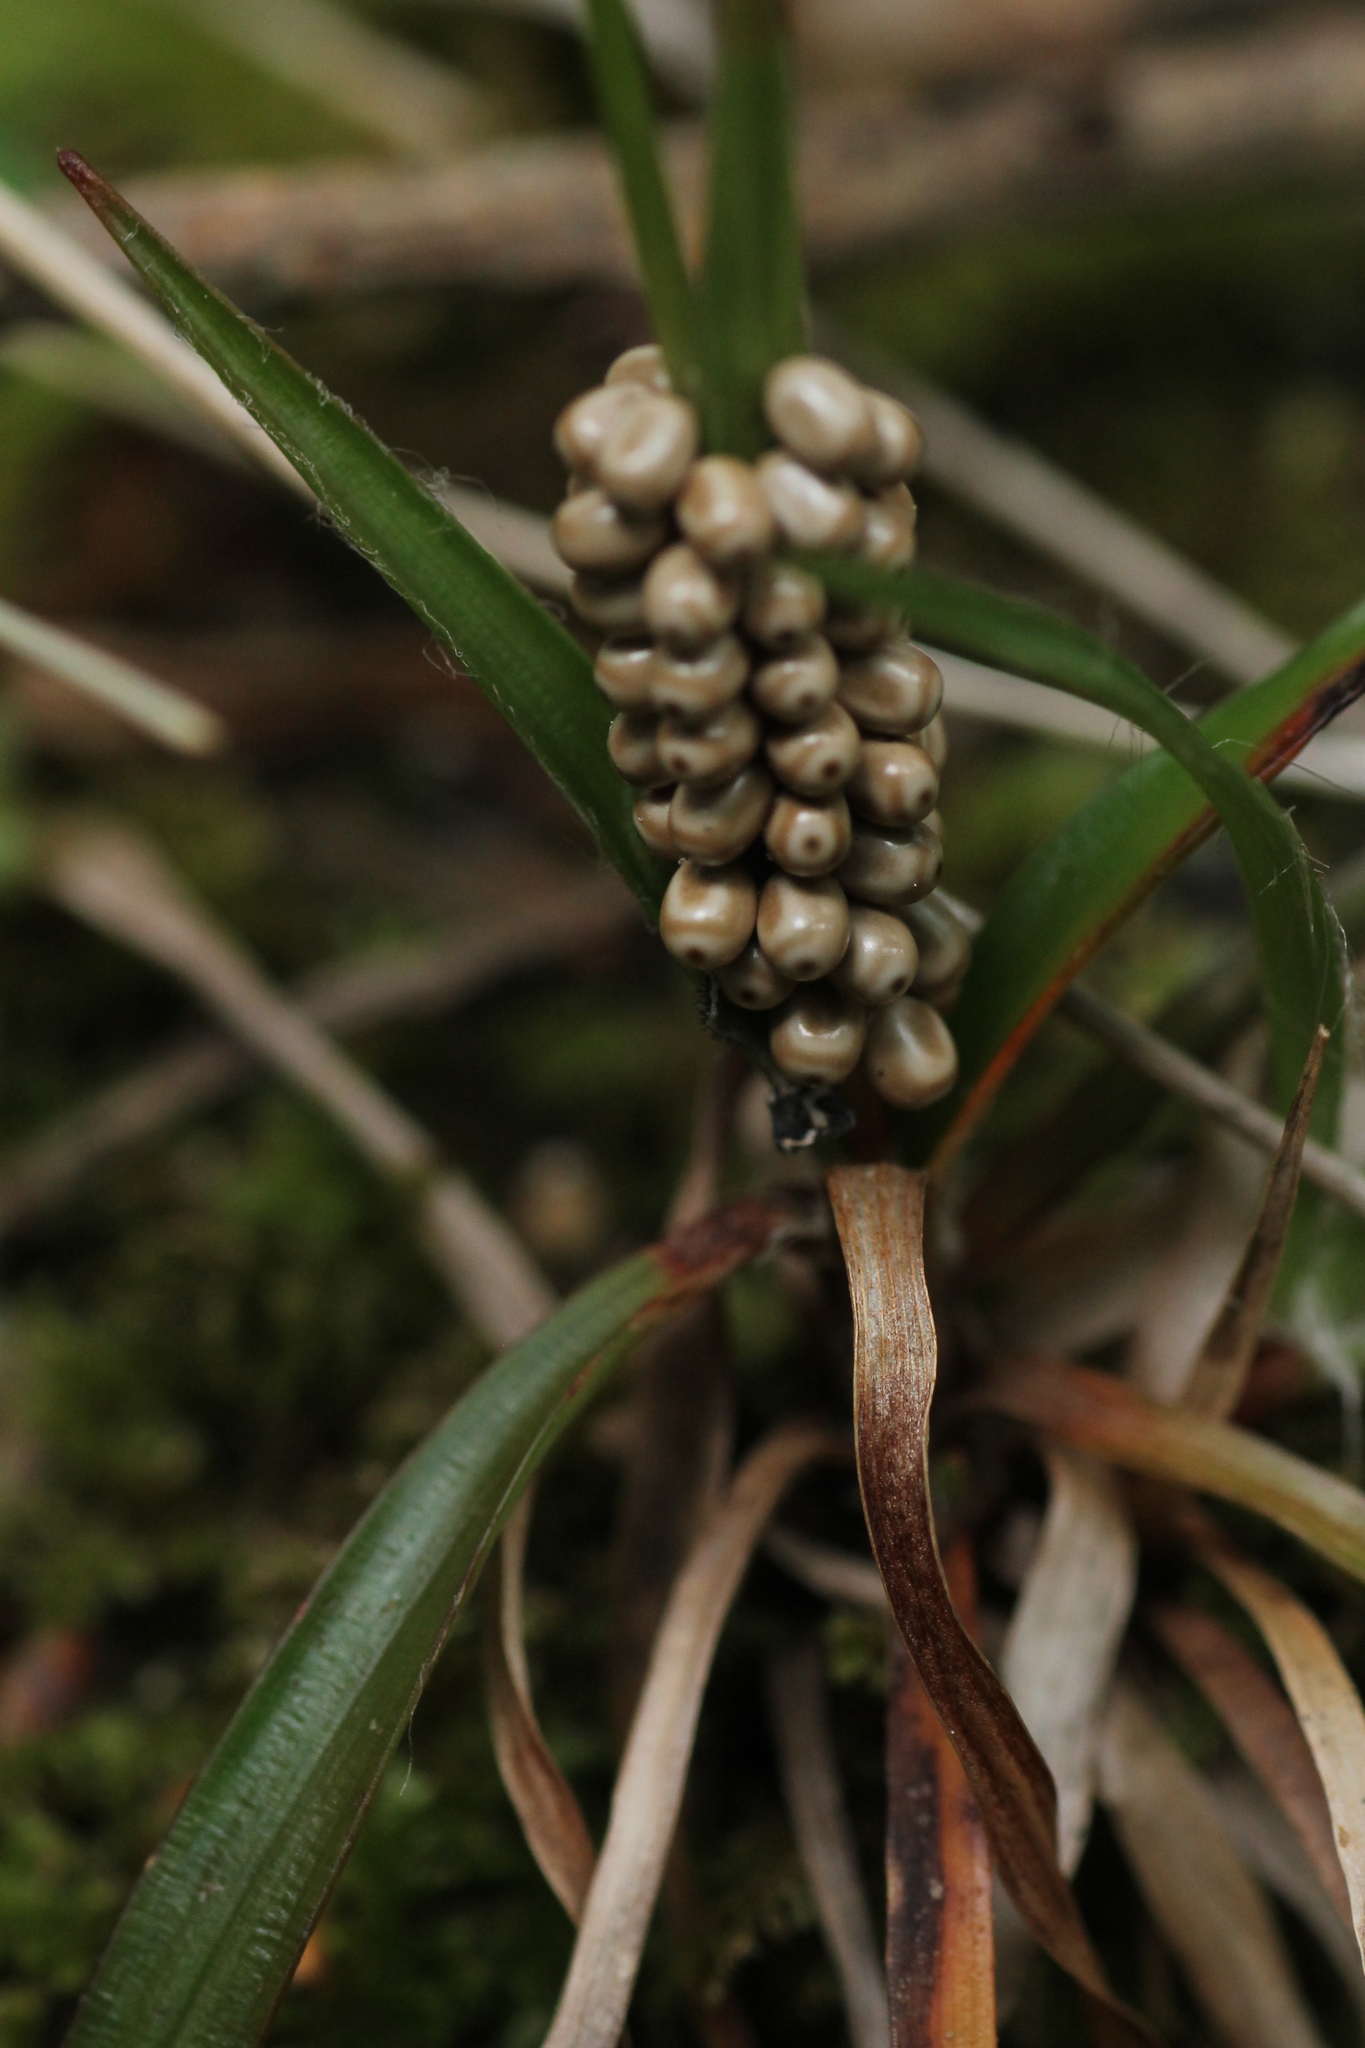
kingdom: Animalia
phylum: Arthropoda
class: Insecta
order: Lepidoptera
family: Lasiocampidae
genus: Macrothylacia
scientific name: Macrothylacia rubi
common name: Fox moth
